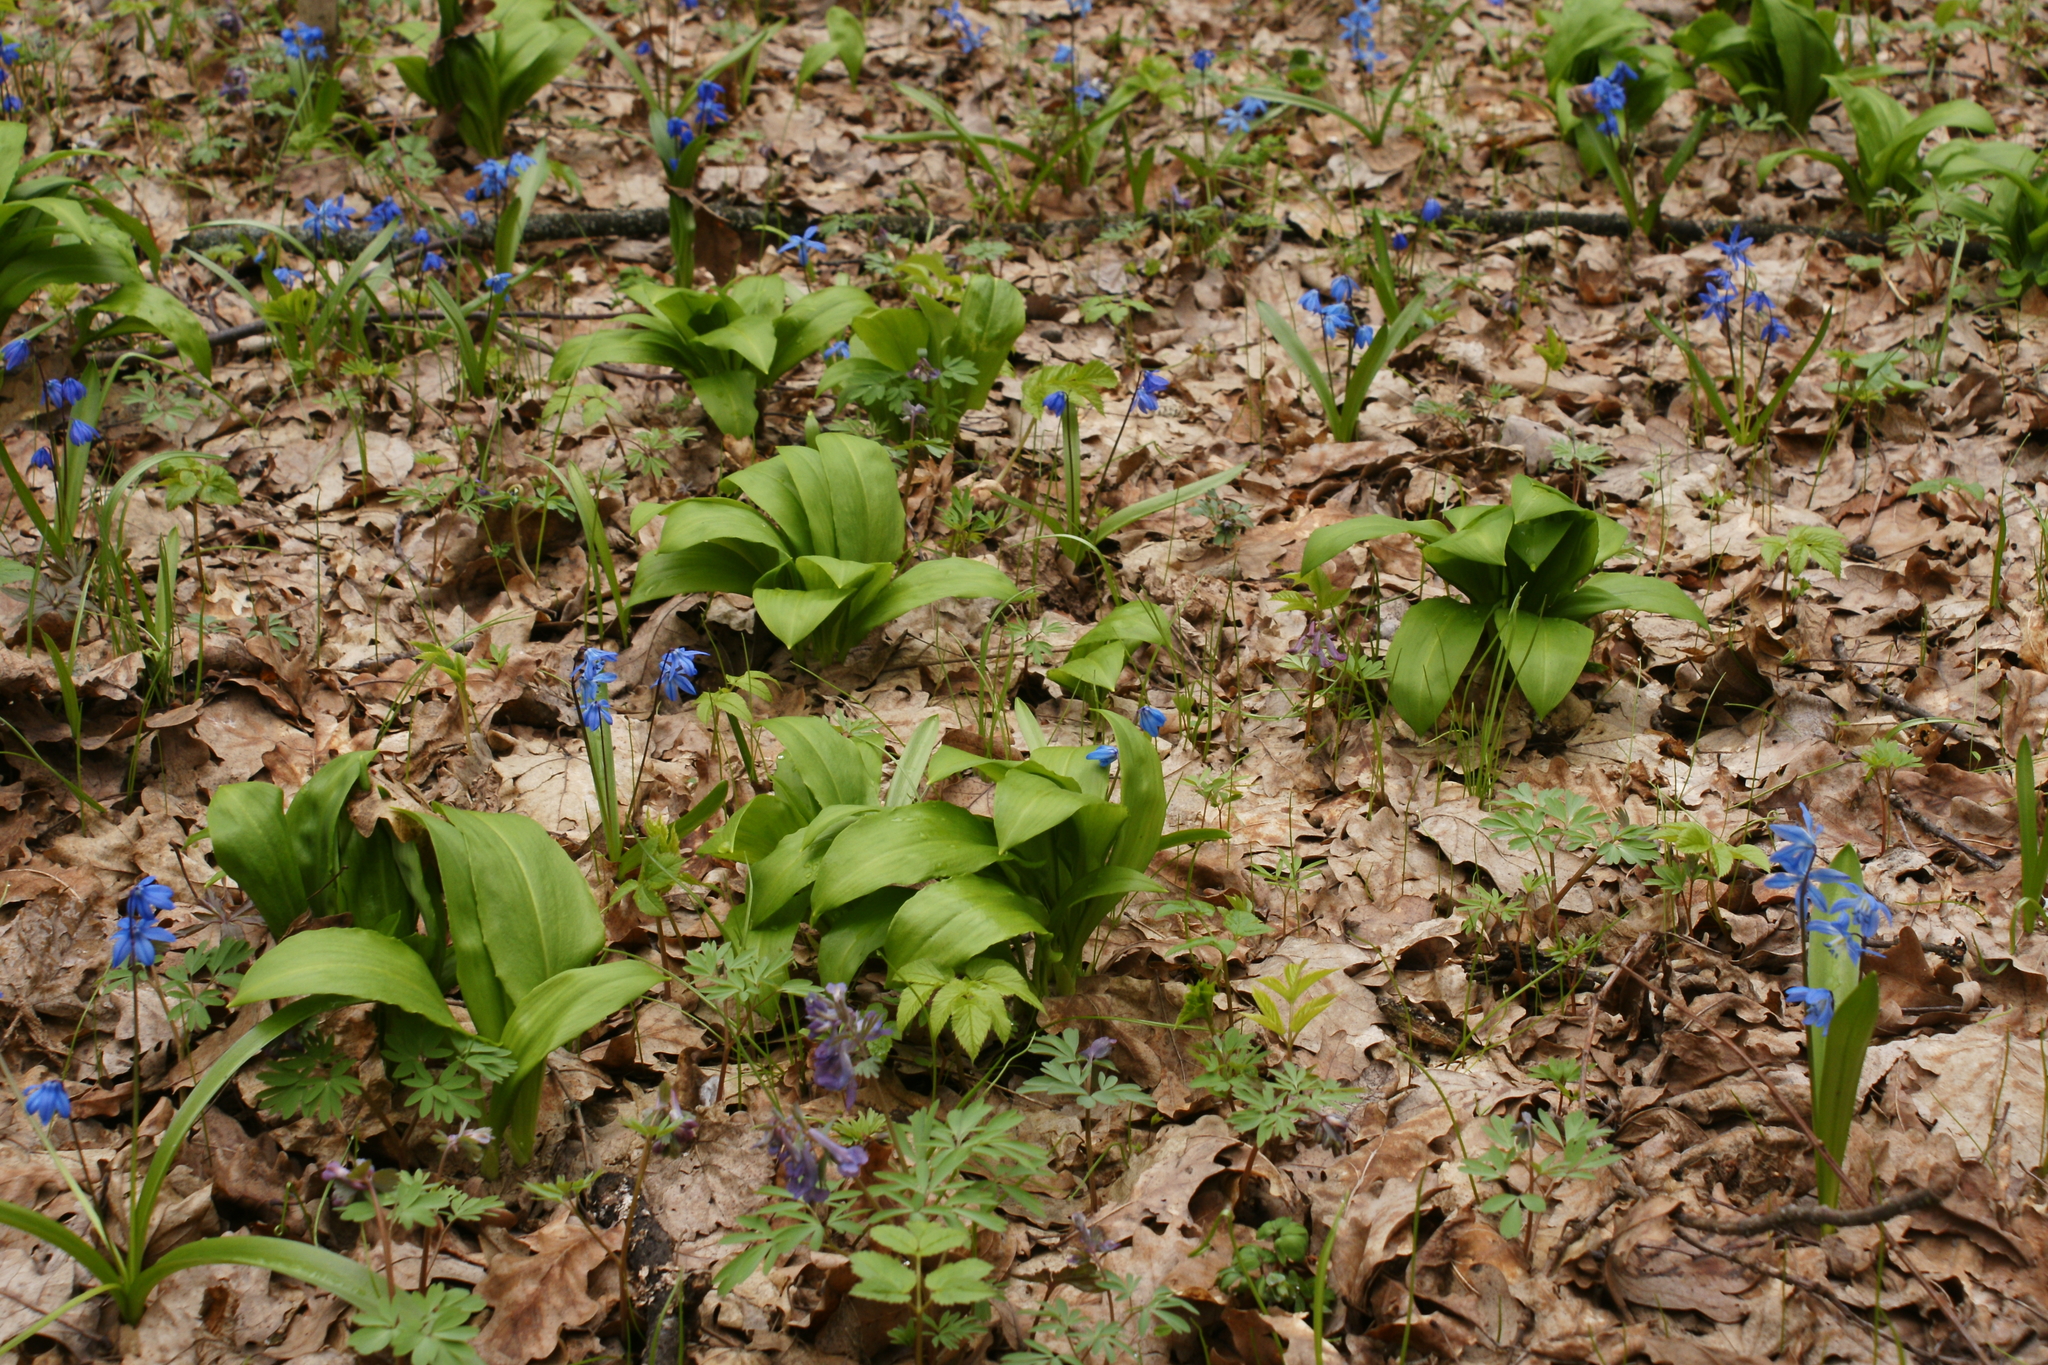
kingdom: Plantae
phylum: Tracheophyta
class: Liliopsida
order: Asparagales
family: Amaryllidaceae
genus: Allium
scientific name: Allium ursinum
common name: Ramsons
